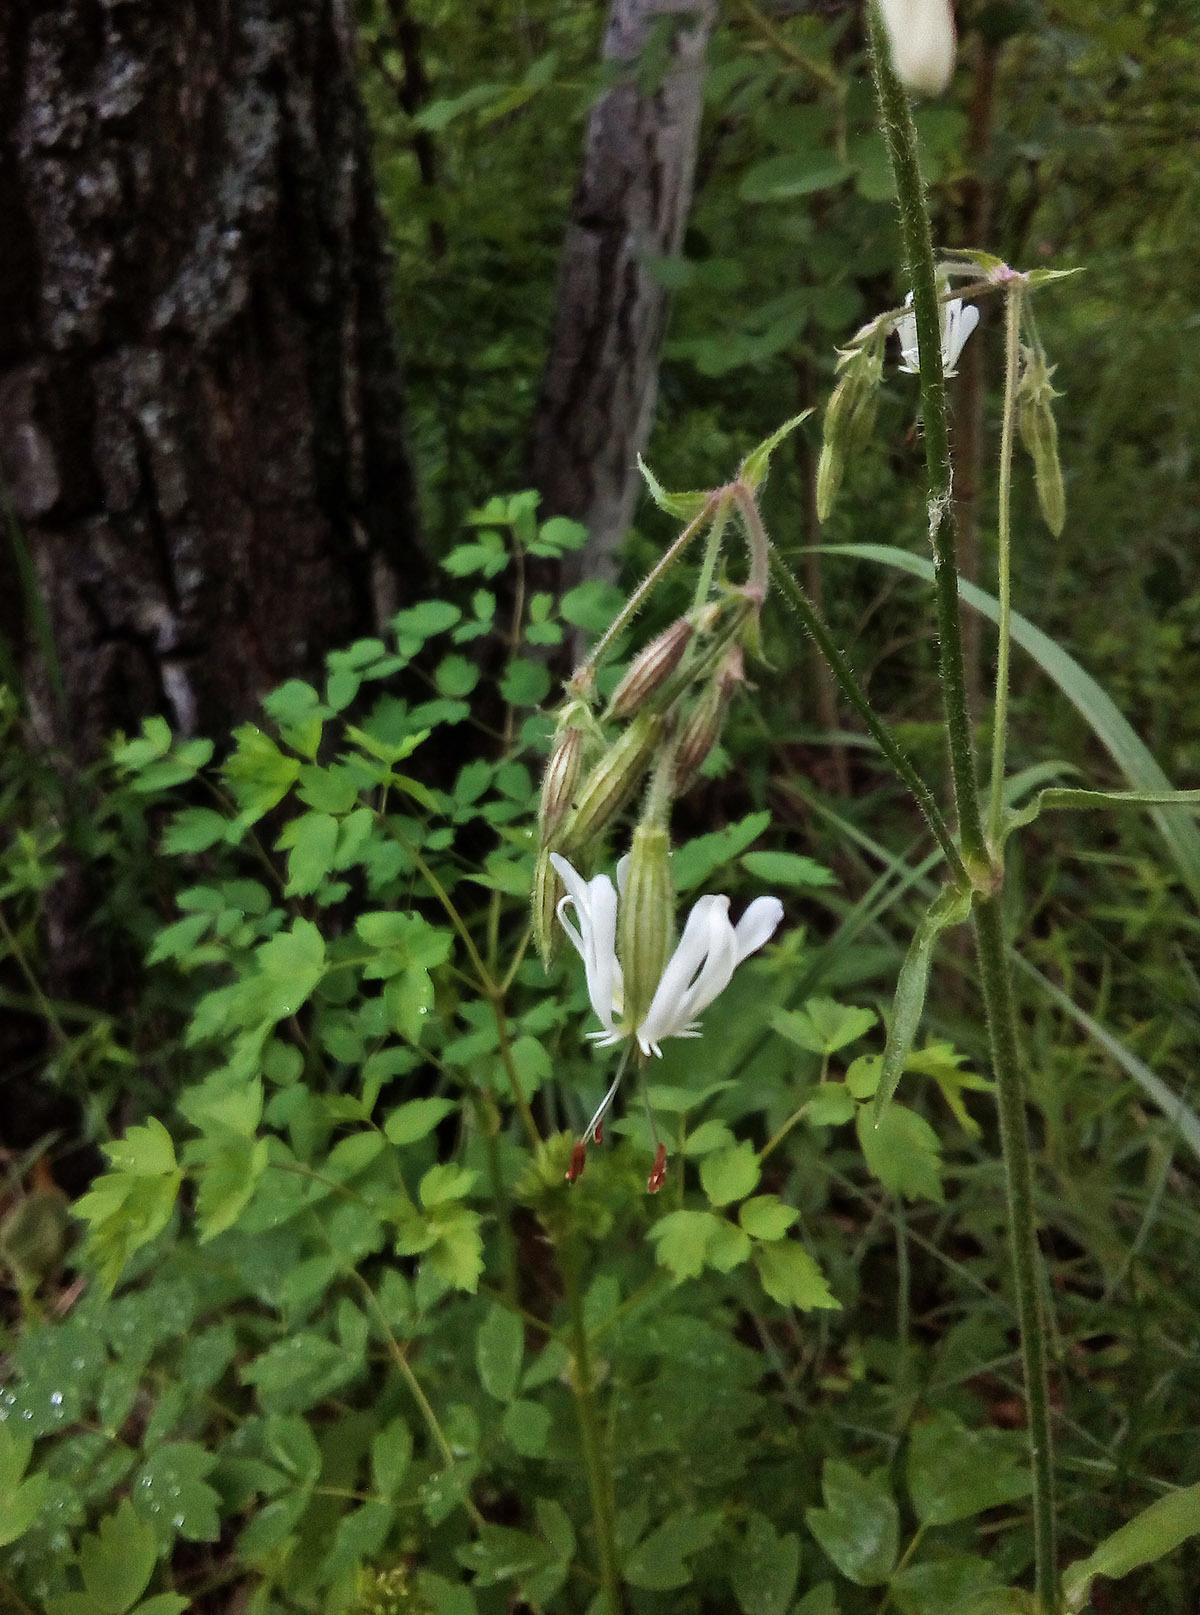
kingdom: Plantae
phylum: Tracheophyta
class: Magnoliopsida
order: Caryophyllales
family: Caryophyllaceae
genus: Silene
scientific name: Silene nutans
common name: Nottingham catchfly
